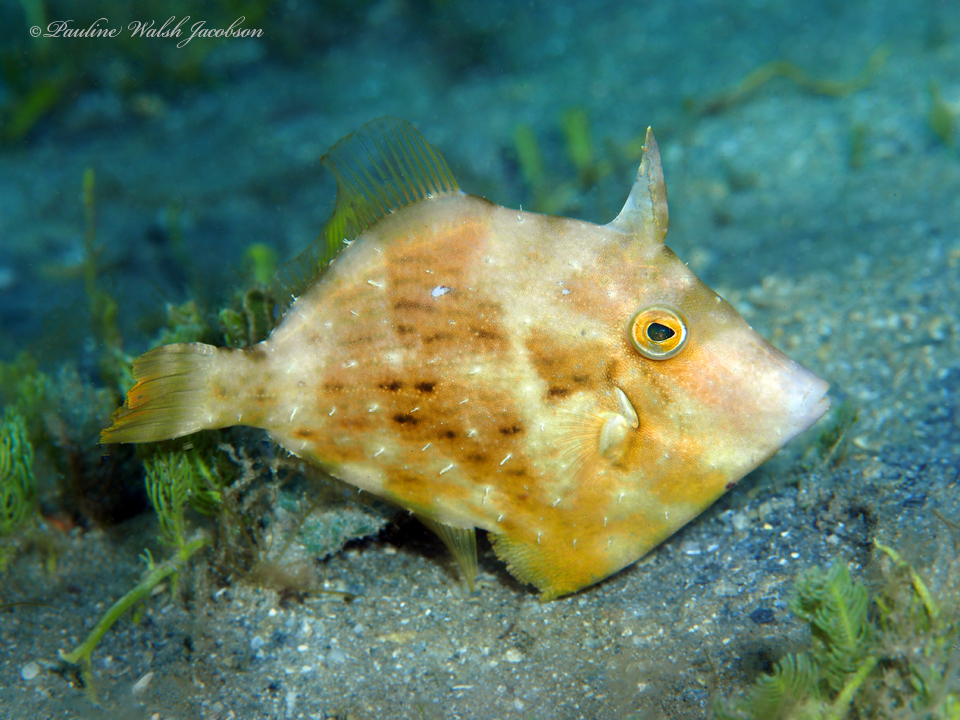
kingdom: Animalia
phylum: Chordata
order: Tetraodontiformes
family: Monacanthidae
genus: Stephanolepis
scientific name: Stephanolepis setifer
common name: Pygmy filefish
